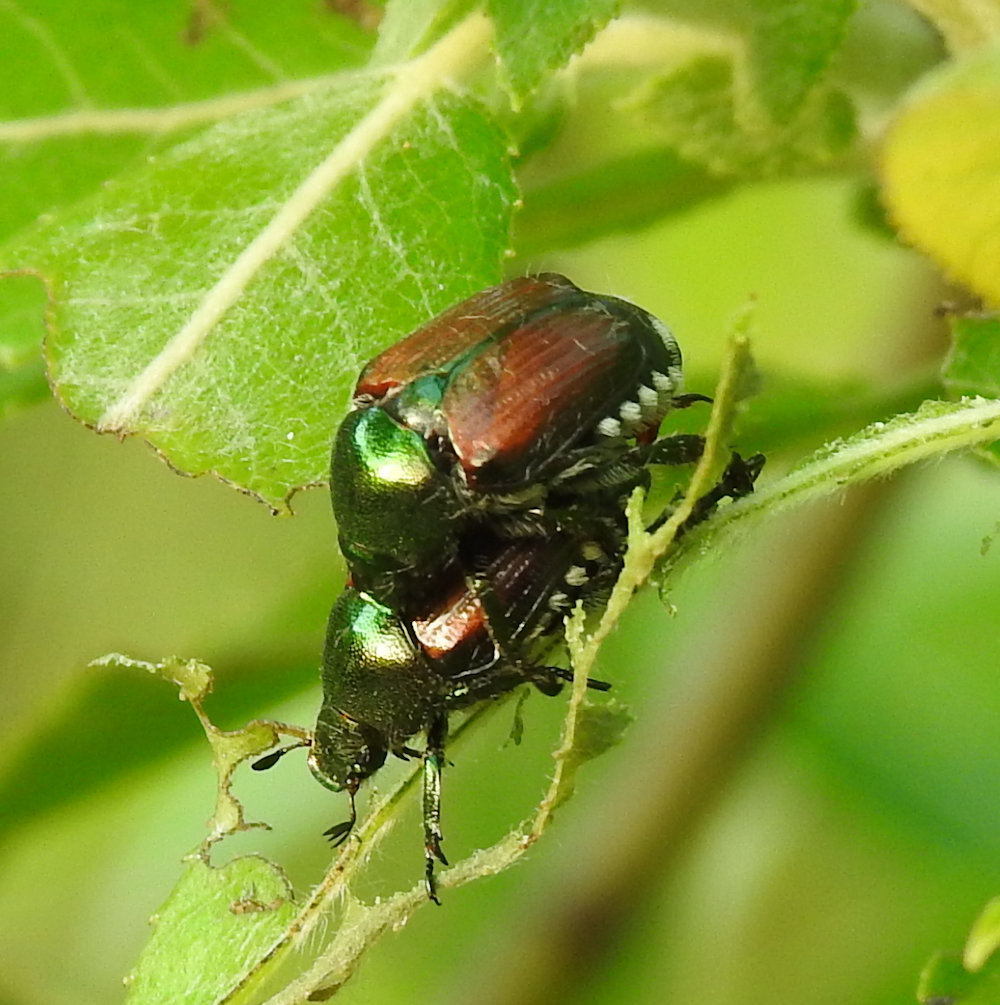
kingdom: Animalia
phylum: Arthropoda
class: Insecta
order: Coleoptera
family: Scarabaeidae
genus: Popillia
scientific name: Popillia japonica
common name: Japanese beetle
